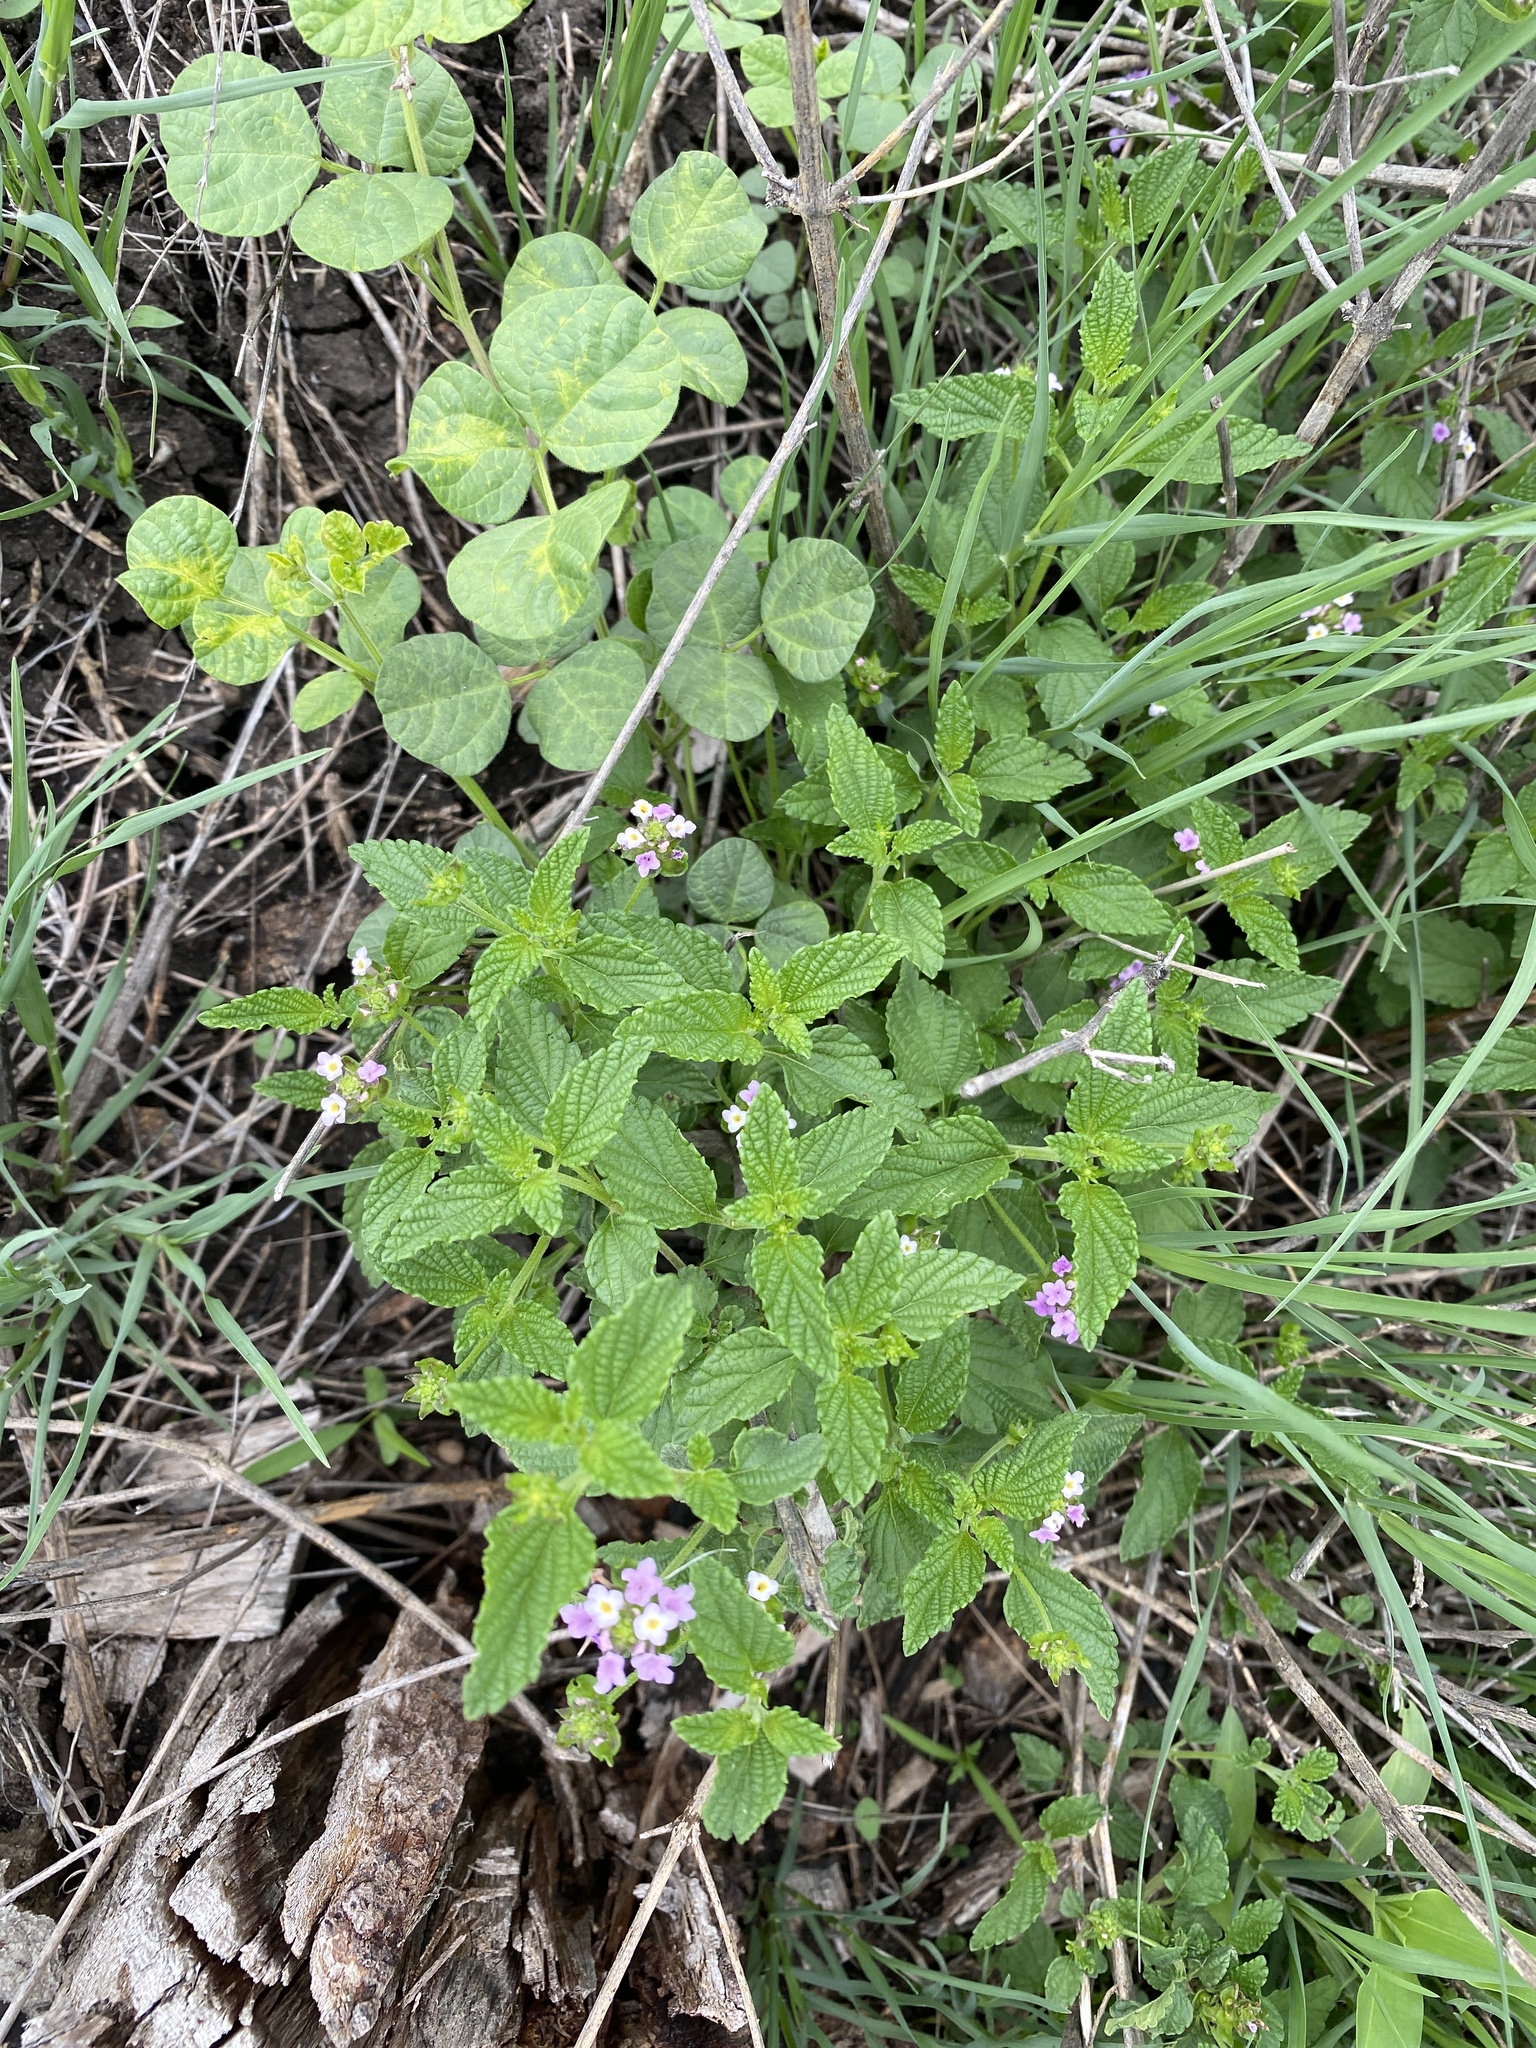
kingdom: Plantae
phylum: Tracheophyta
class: Magnoliopsida
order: Lamiales
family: Verbenaceae
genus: Lantana
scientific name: Lantana rugosa
